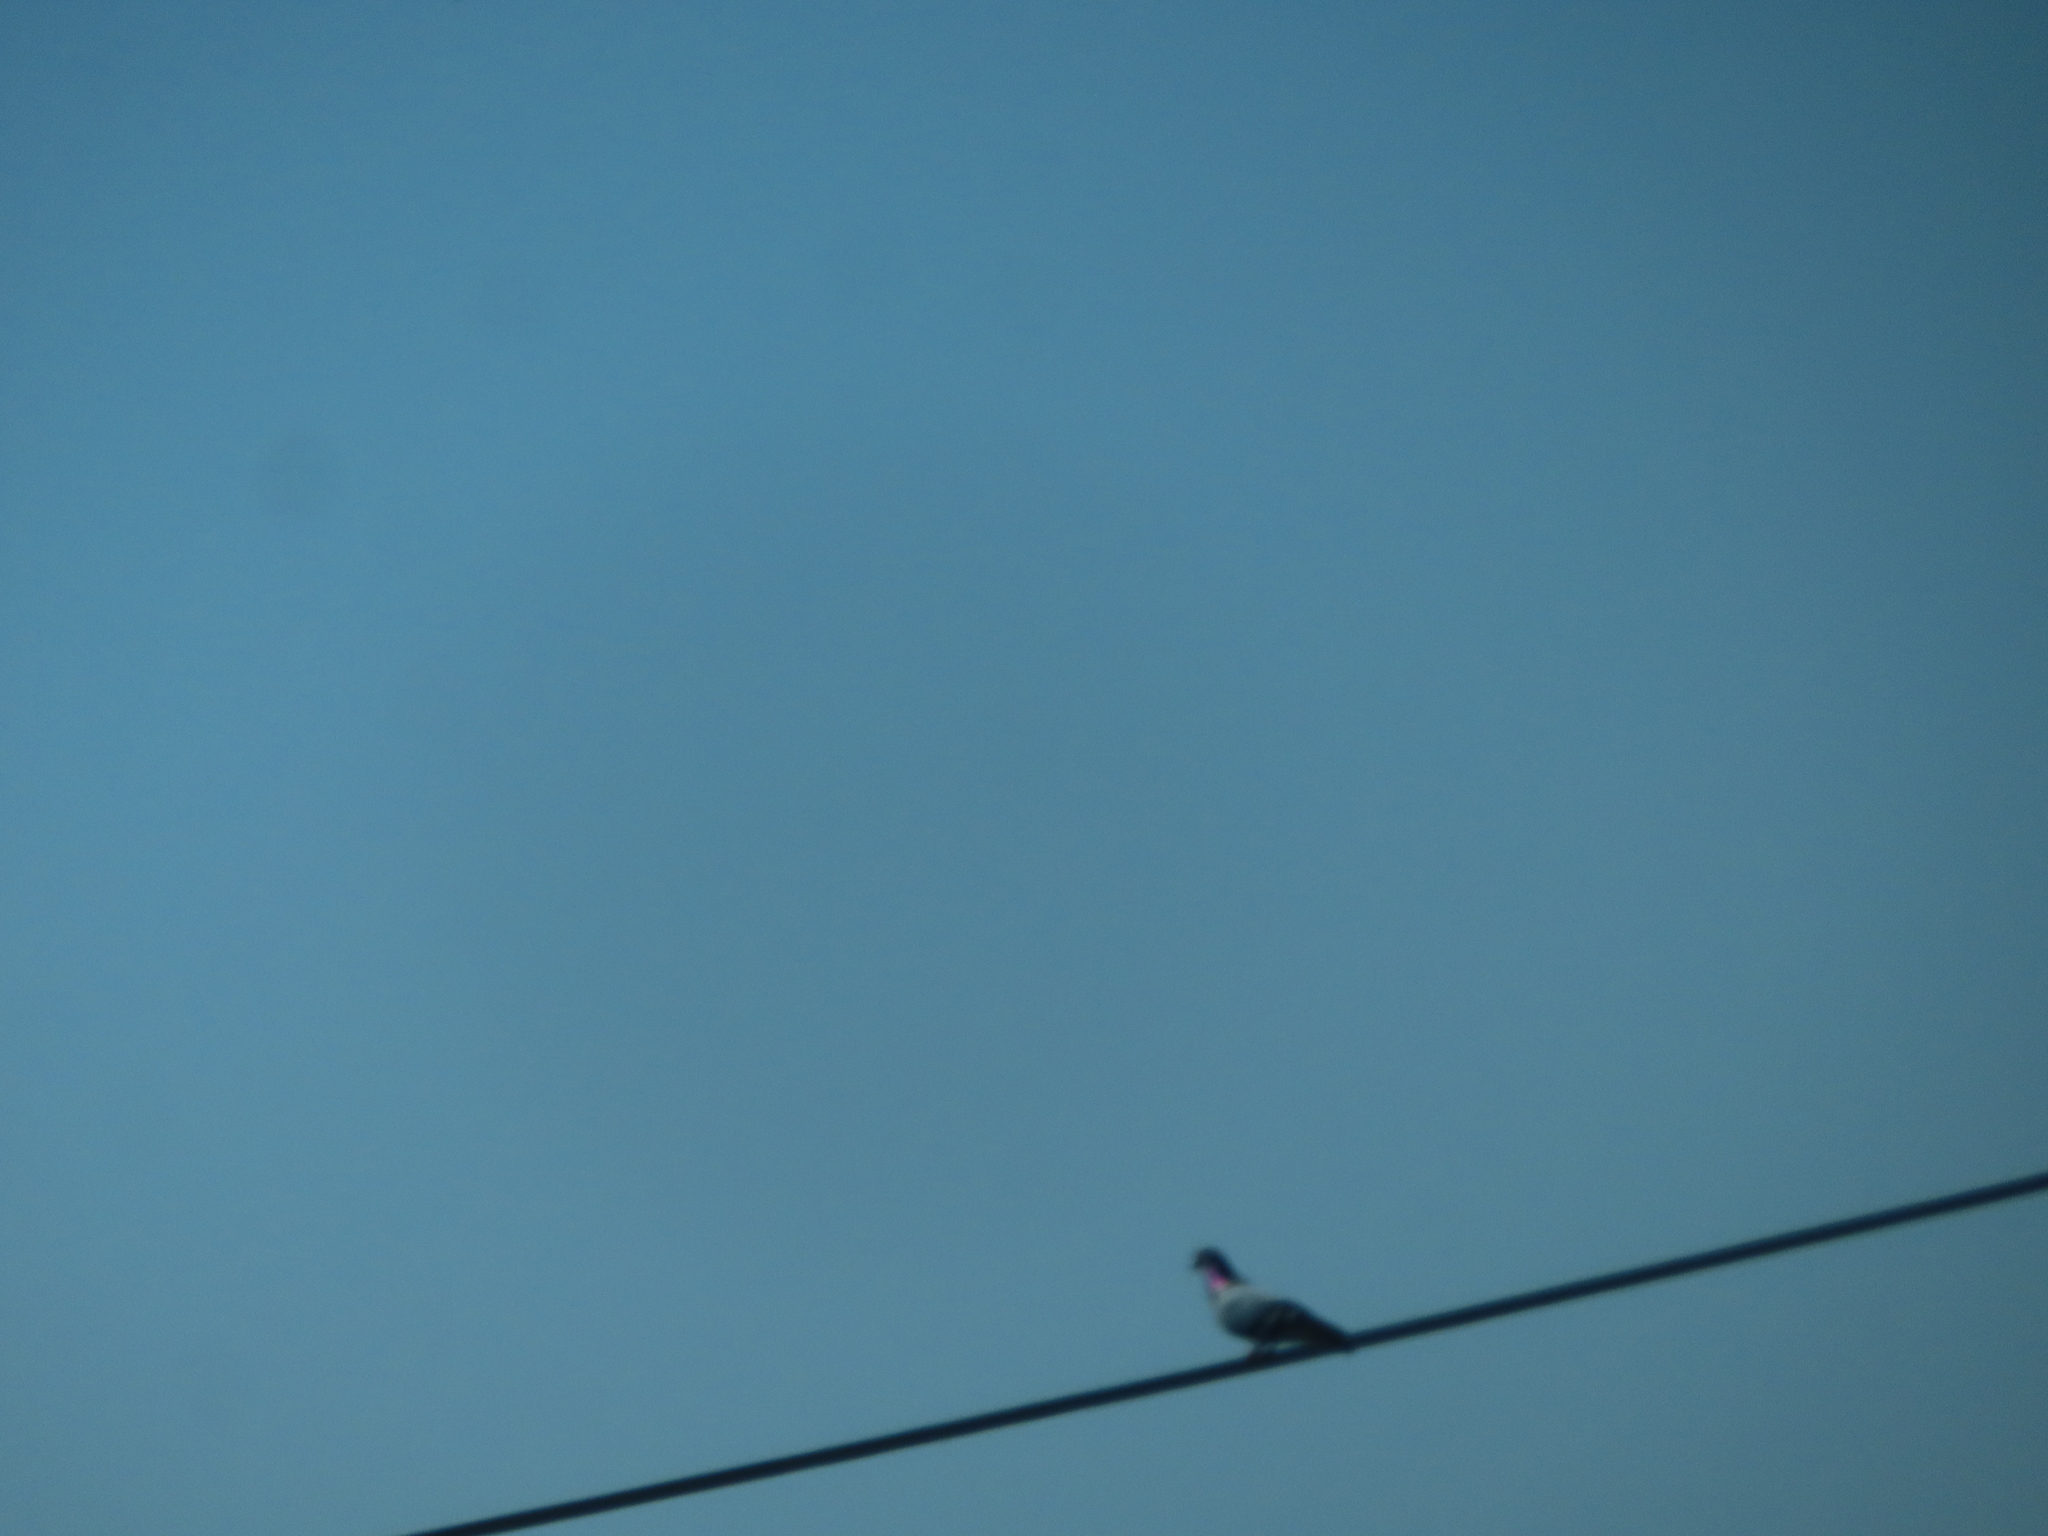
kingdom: Animalia
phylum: Chordata
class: Aves
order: Columbiformes
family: Columbidae
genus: Columba
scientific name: Columba livia
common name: Rock pigeon
